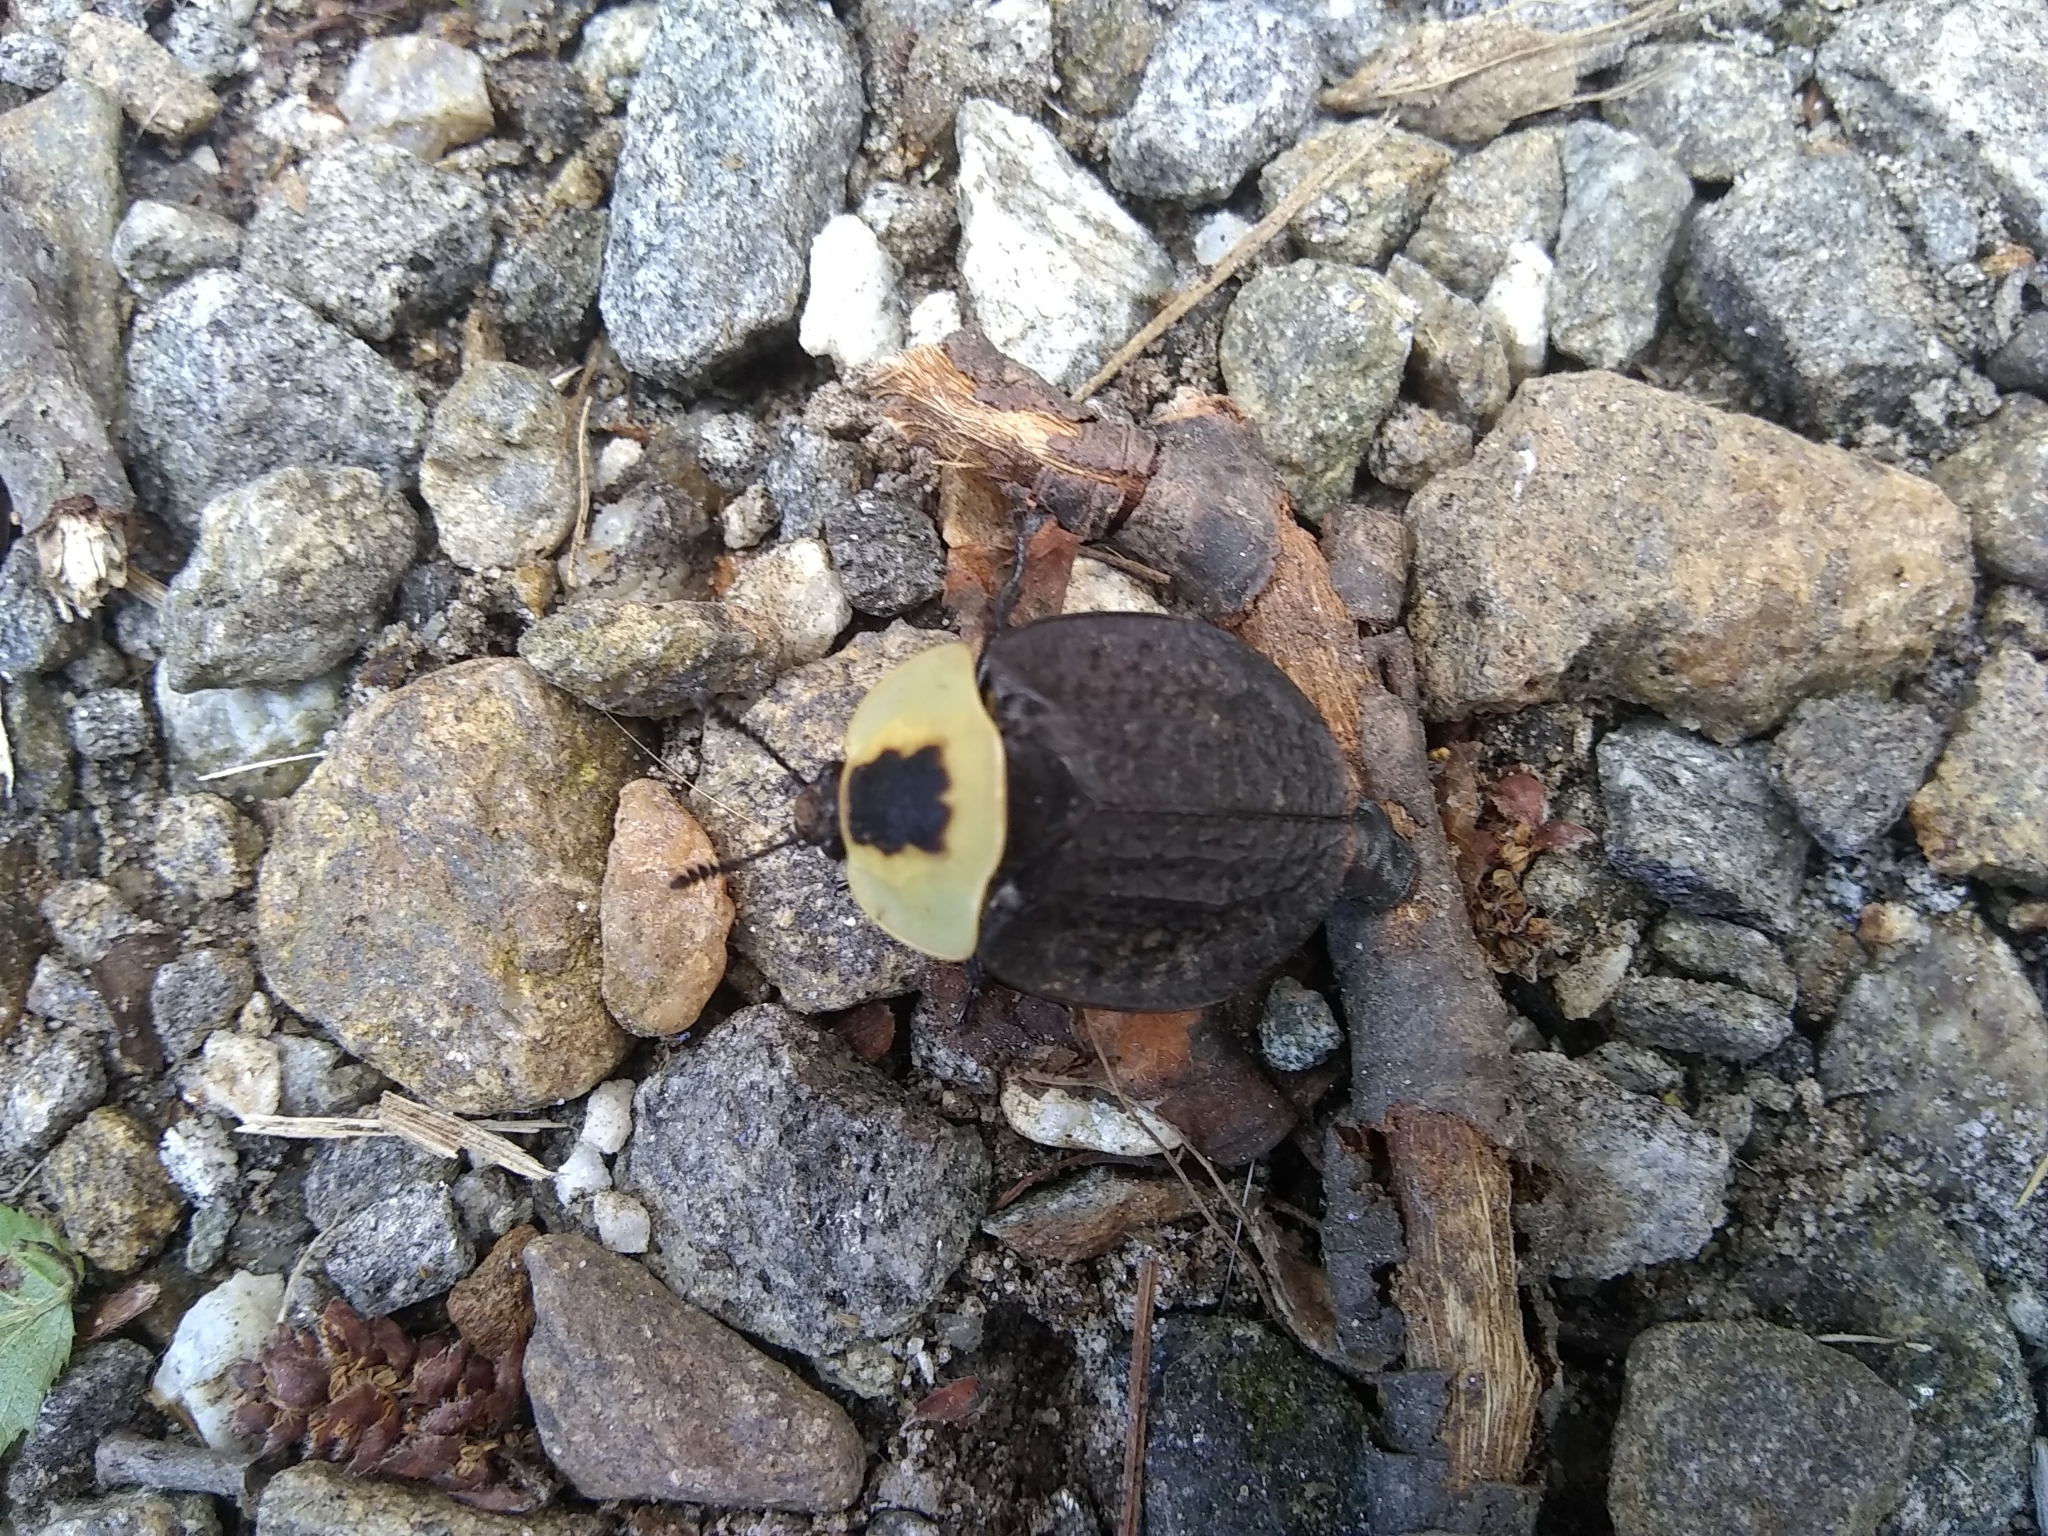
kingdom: Animalia
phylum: Arthropoda
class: Insecta
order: Coleoptera
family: Staphylinidae
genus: Necrophila
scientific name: Necrophila americana
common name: American carrion beetle
